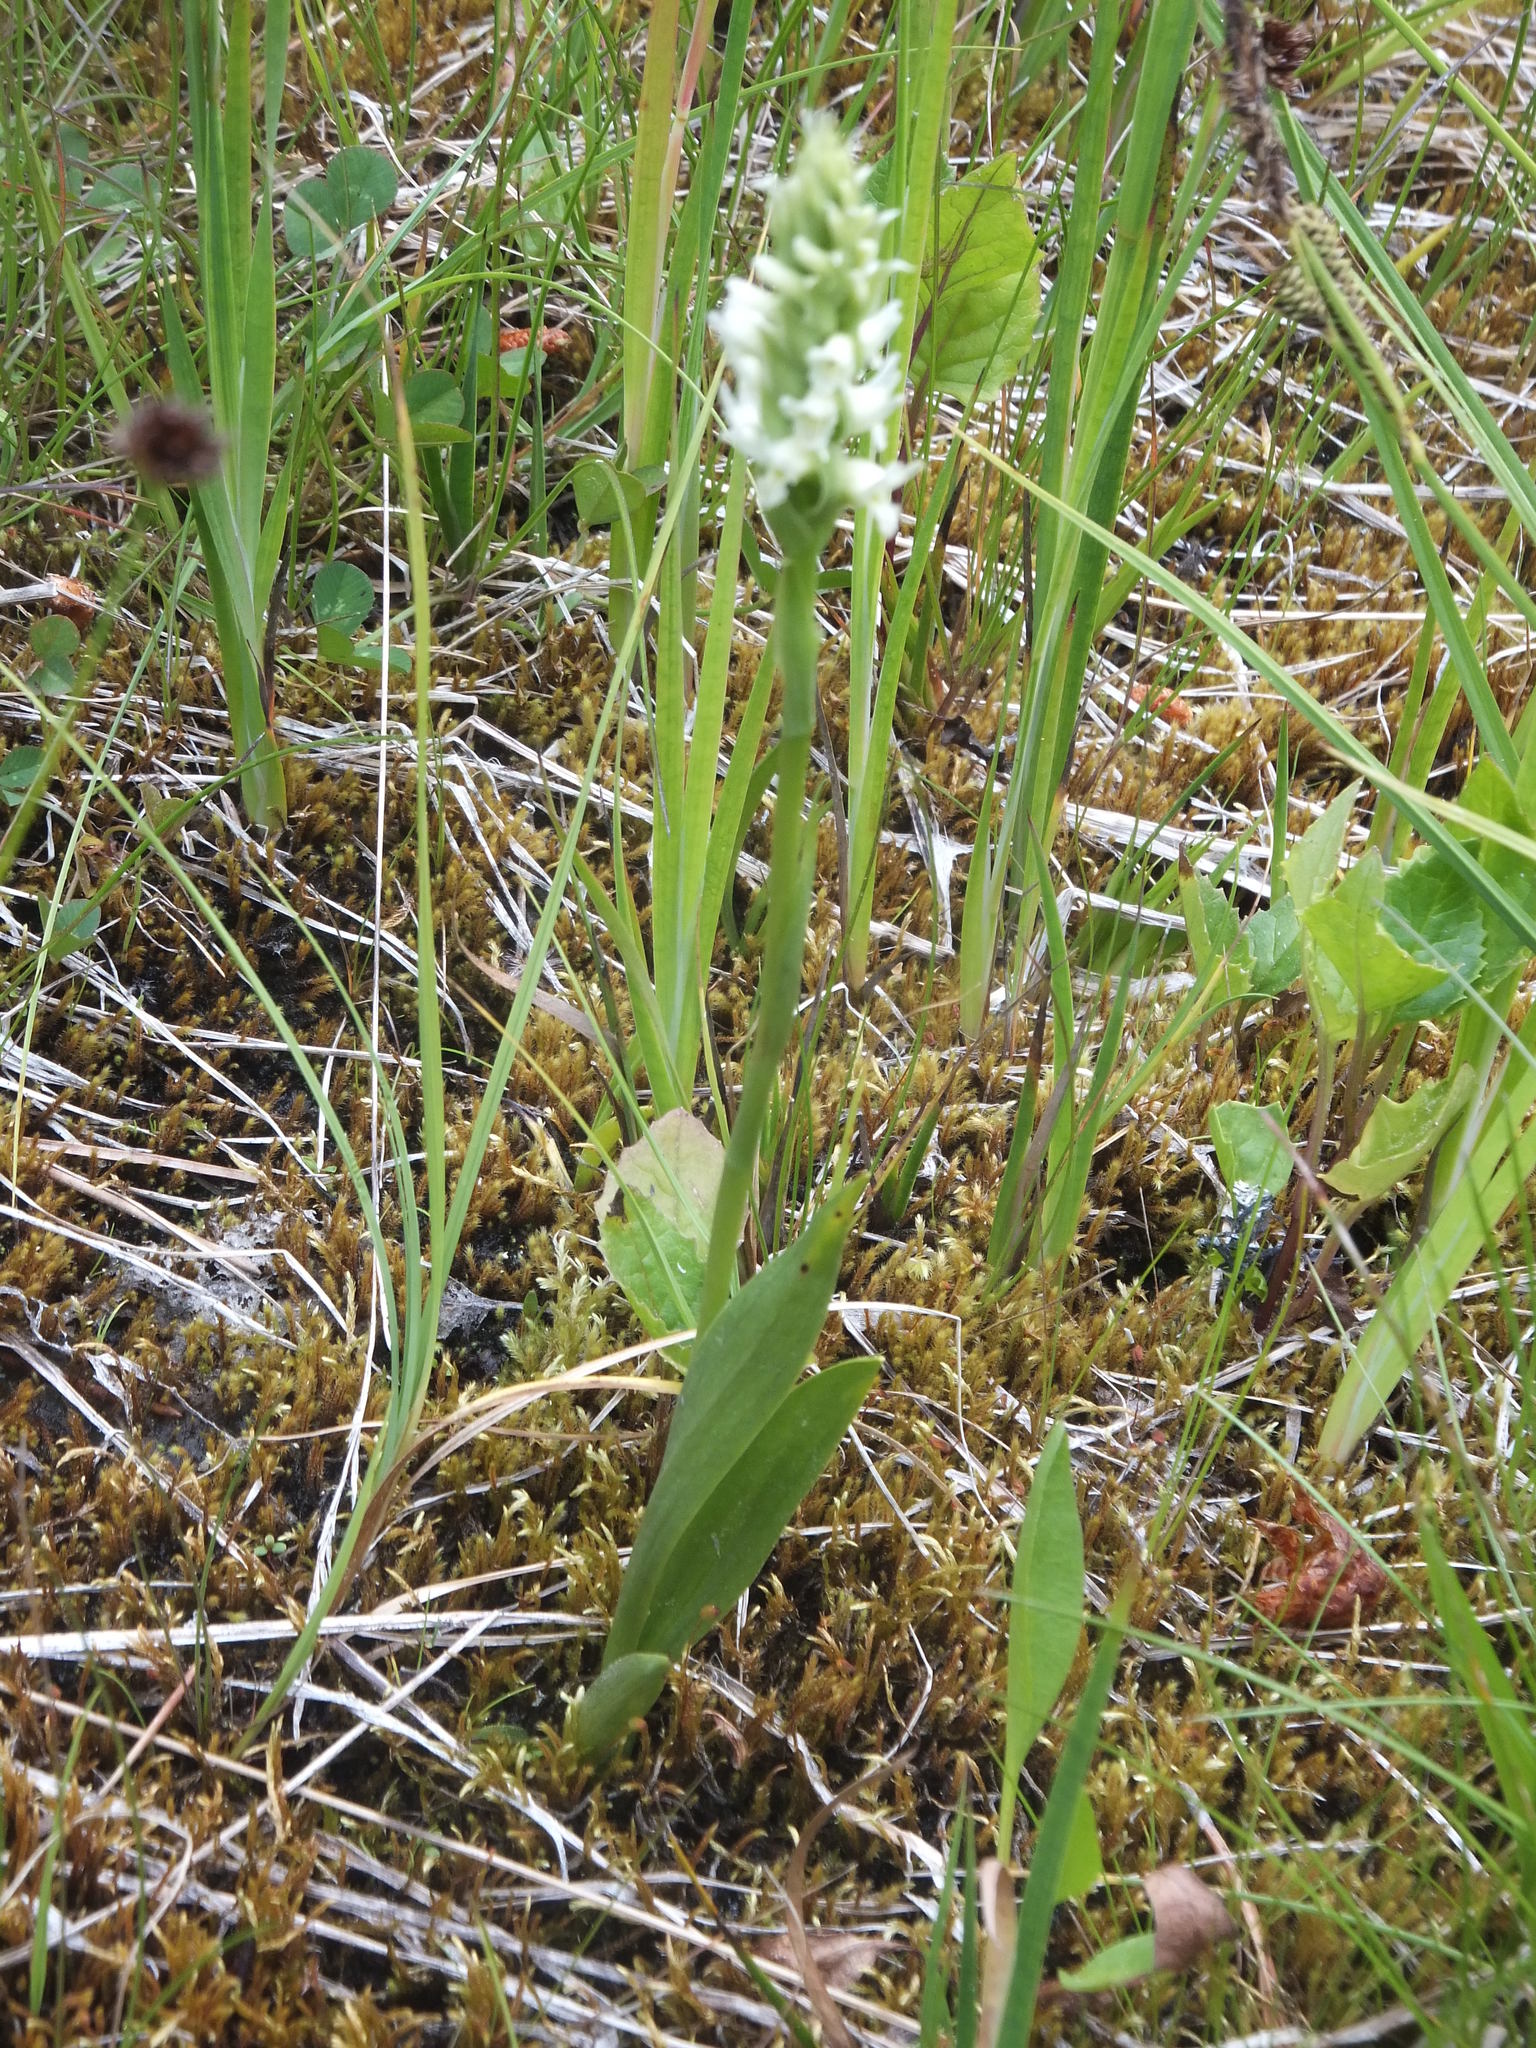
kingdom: Plantae
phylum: Tracheophyta
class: Liliopsida
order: Asparagales
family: Orchidaceae
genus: Spiranthes
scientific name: Spiranthes romanzoffiana
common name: Irish lady's-tresses
